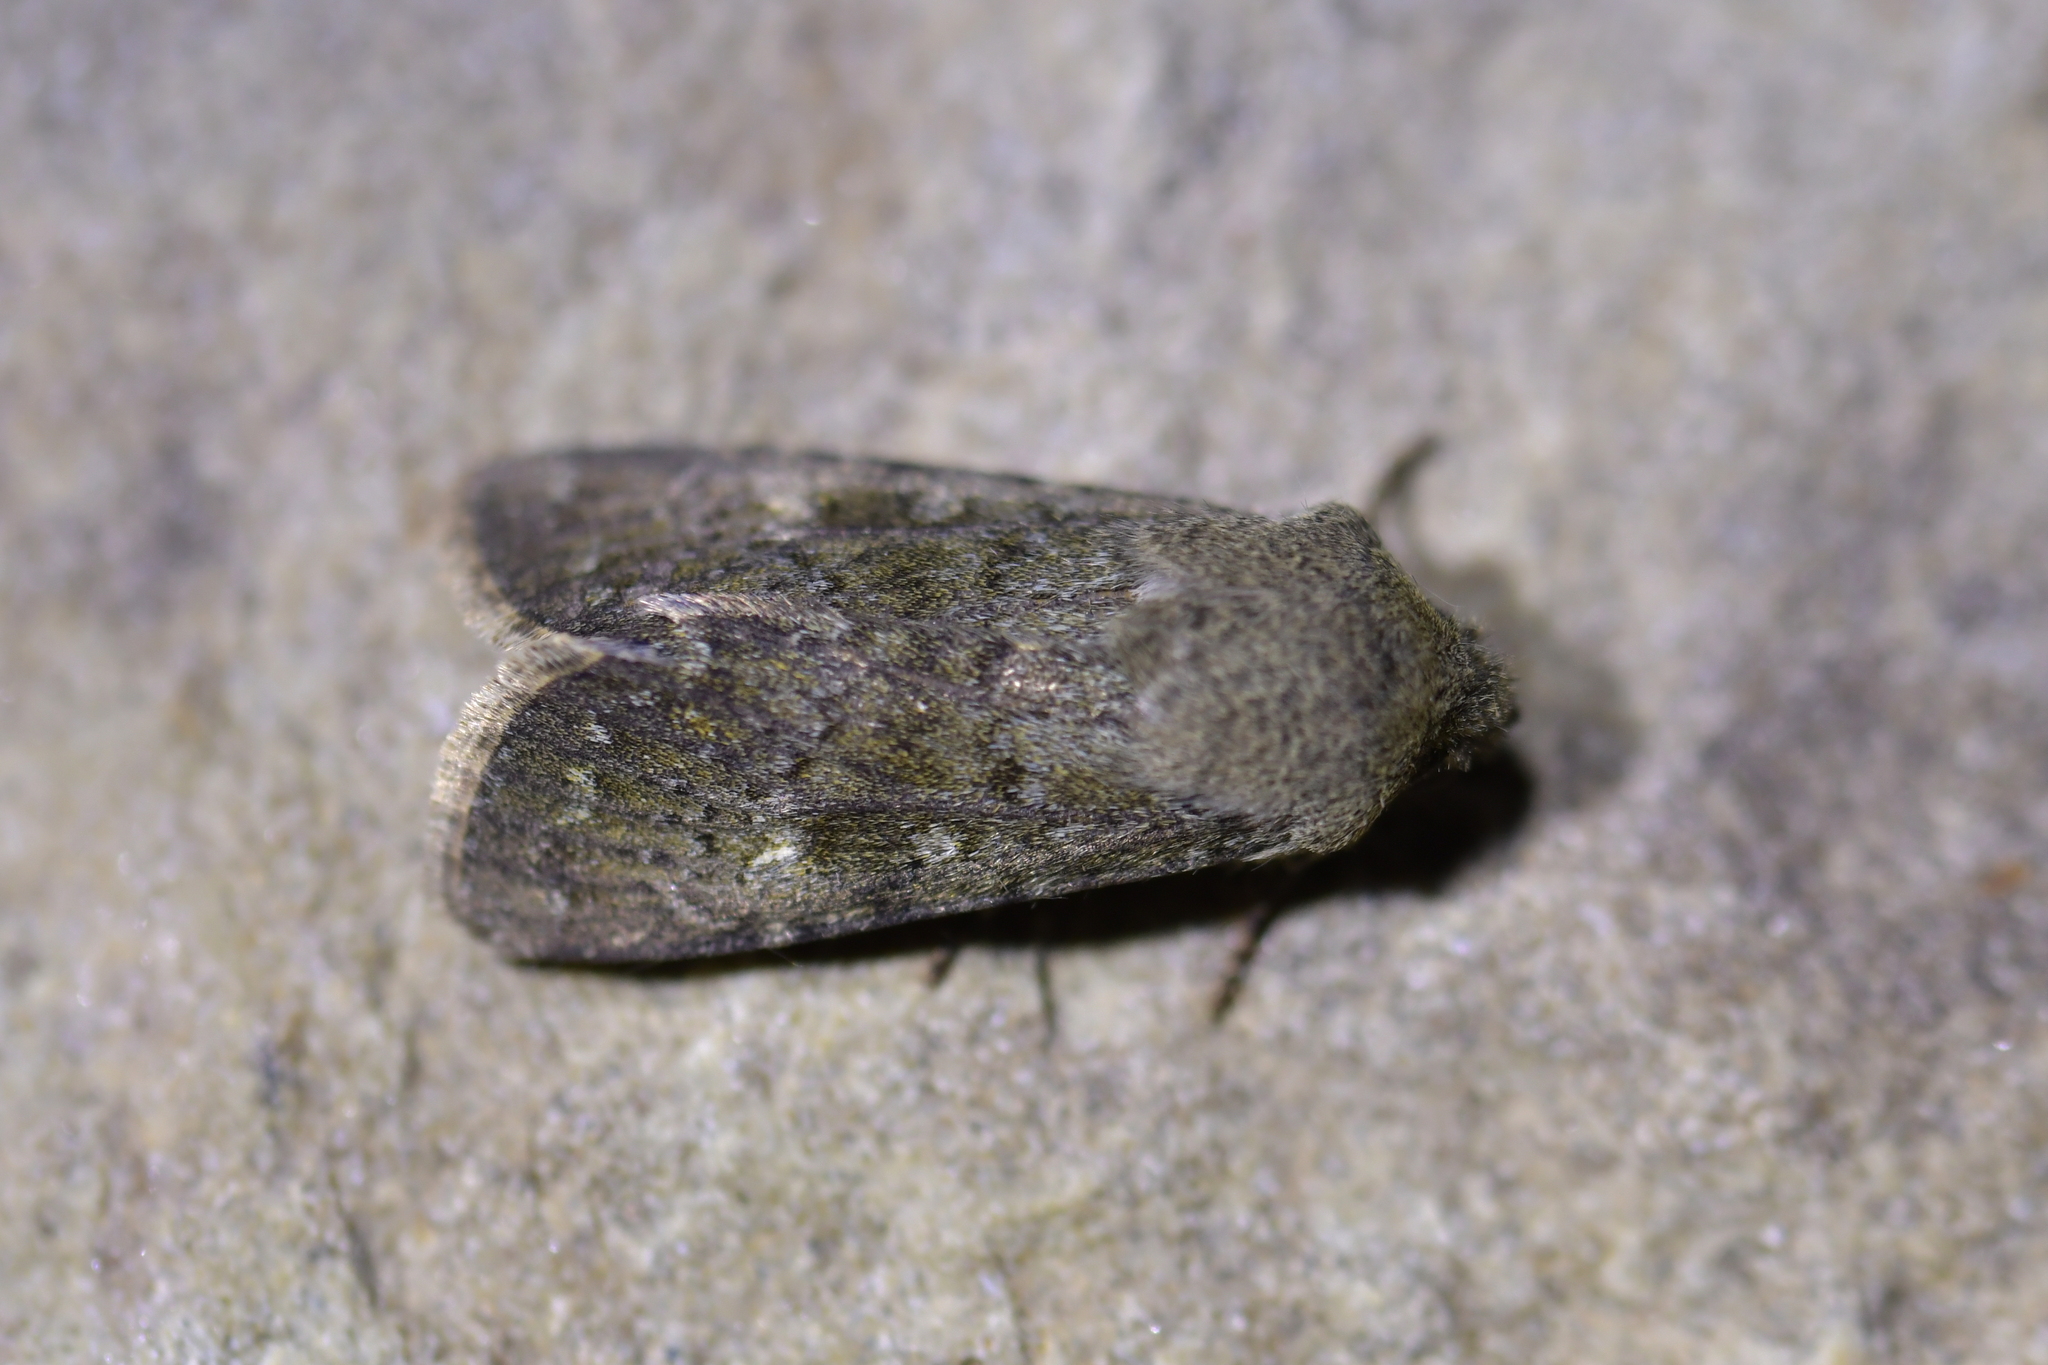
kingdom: Animalia
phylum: Arthropoda
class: Insecta
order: Lepidoptera
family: Noctuidae
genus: Ichneutica
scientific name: Ichneutica moderata
